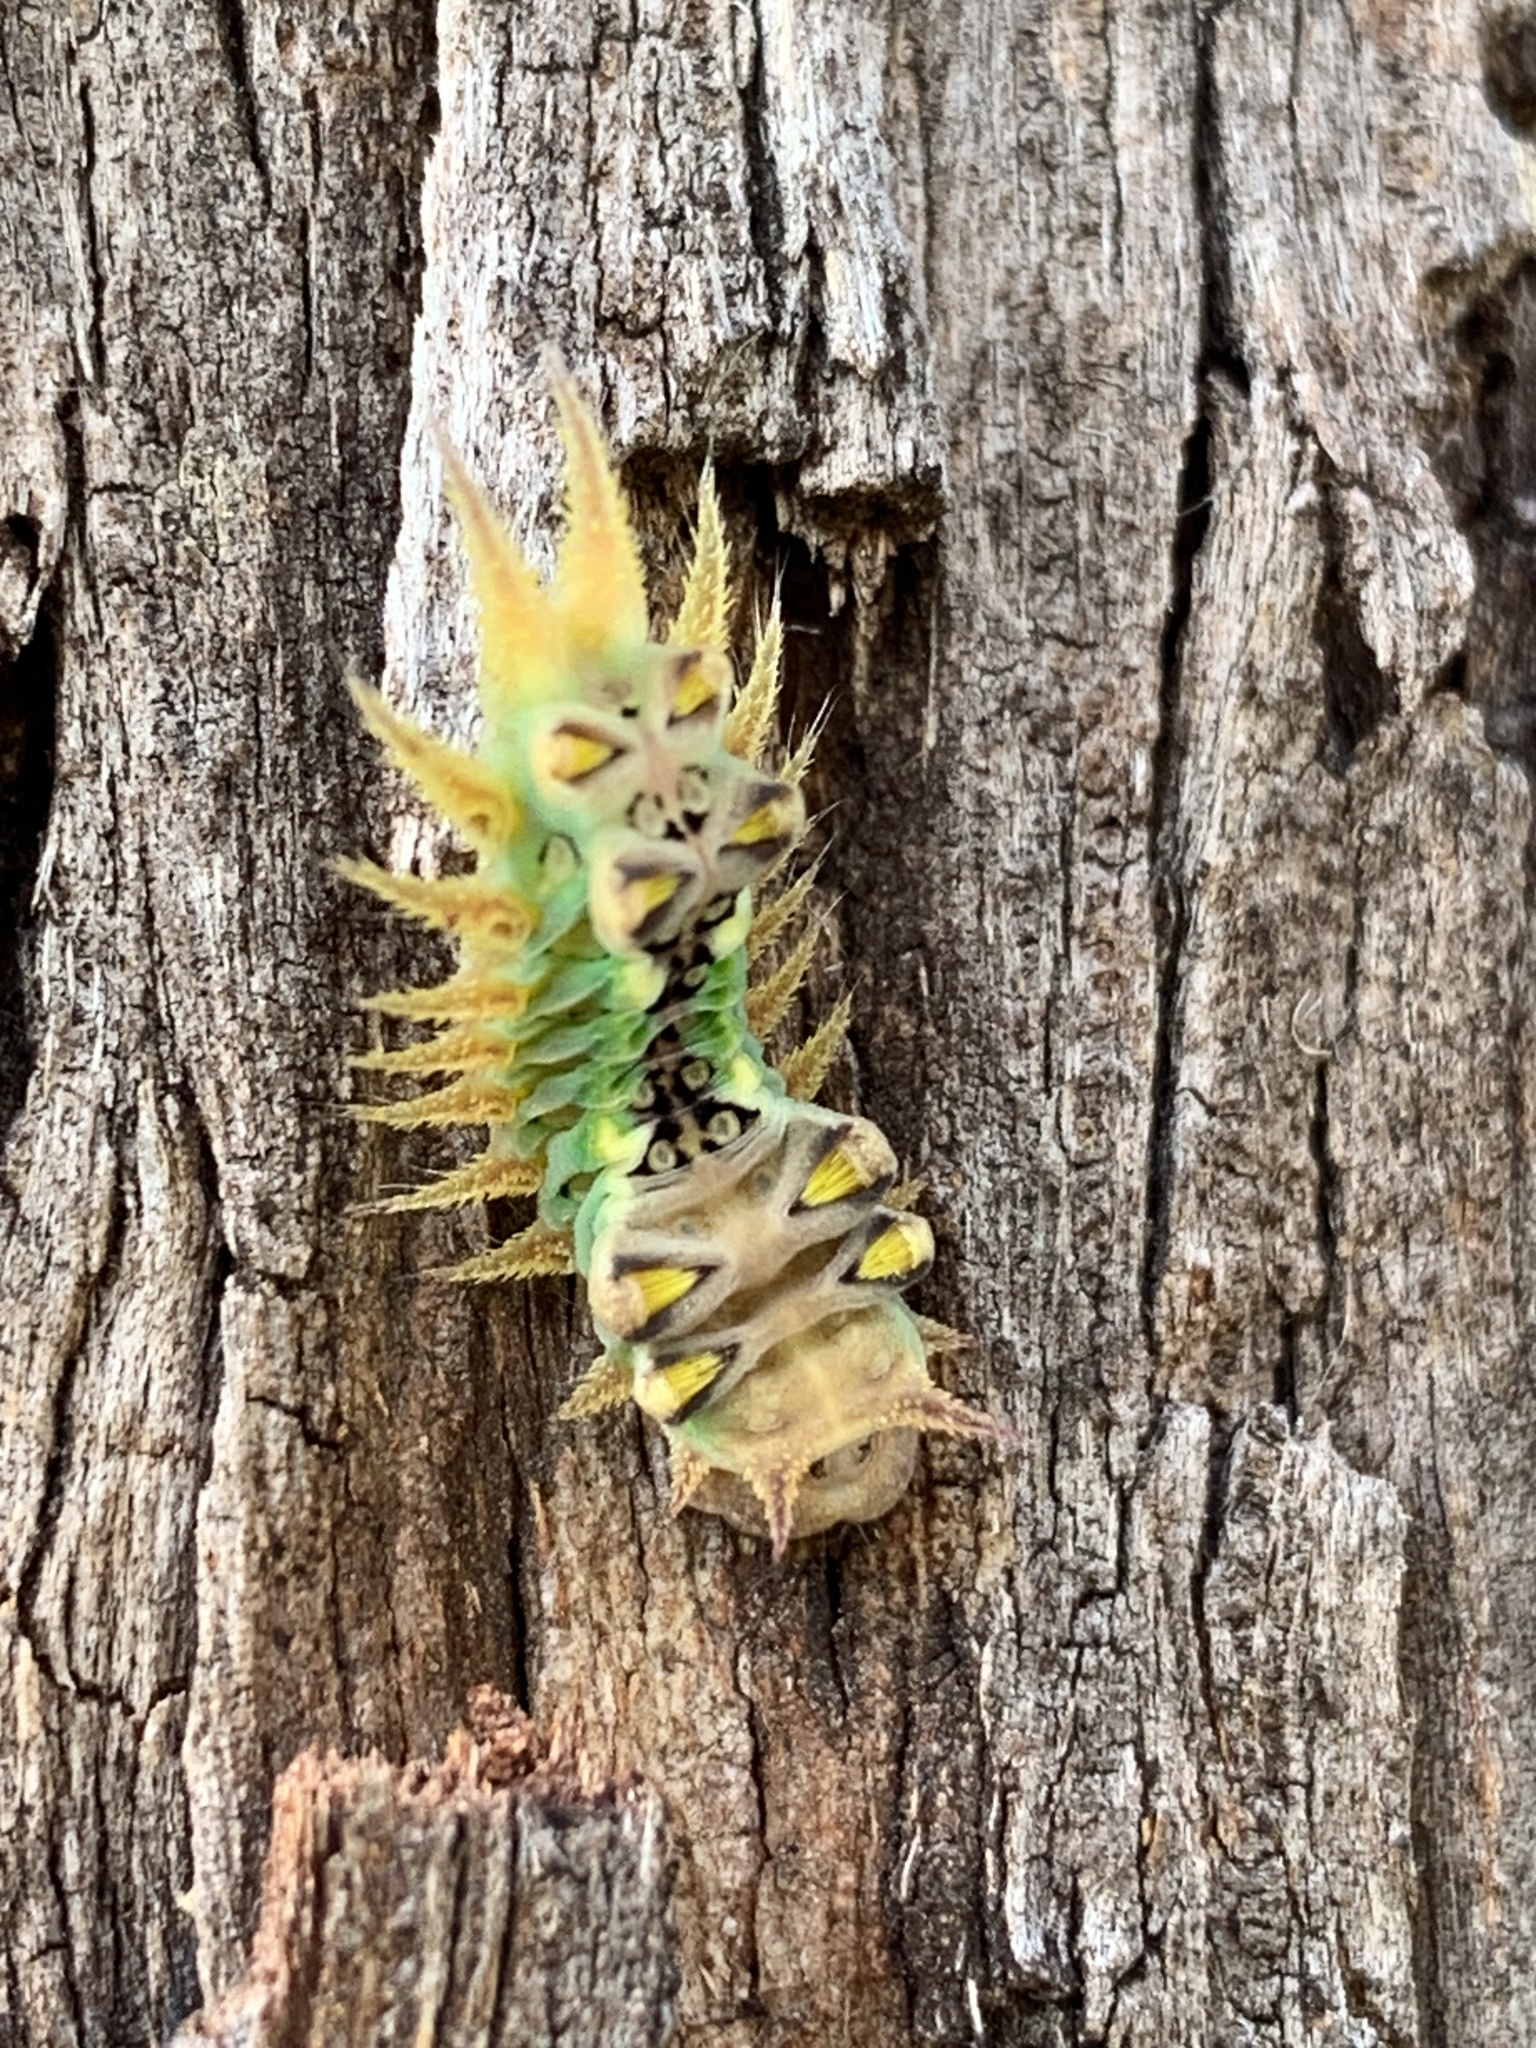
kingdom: Animalia
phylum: Arthropoda
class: Insecta
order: Lepidoptera
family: Limacodidae
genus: Doratifera
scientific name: Doratifera oxleyi
